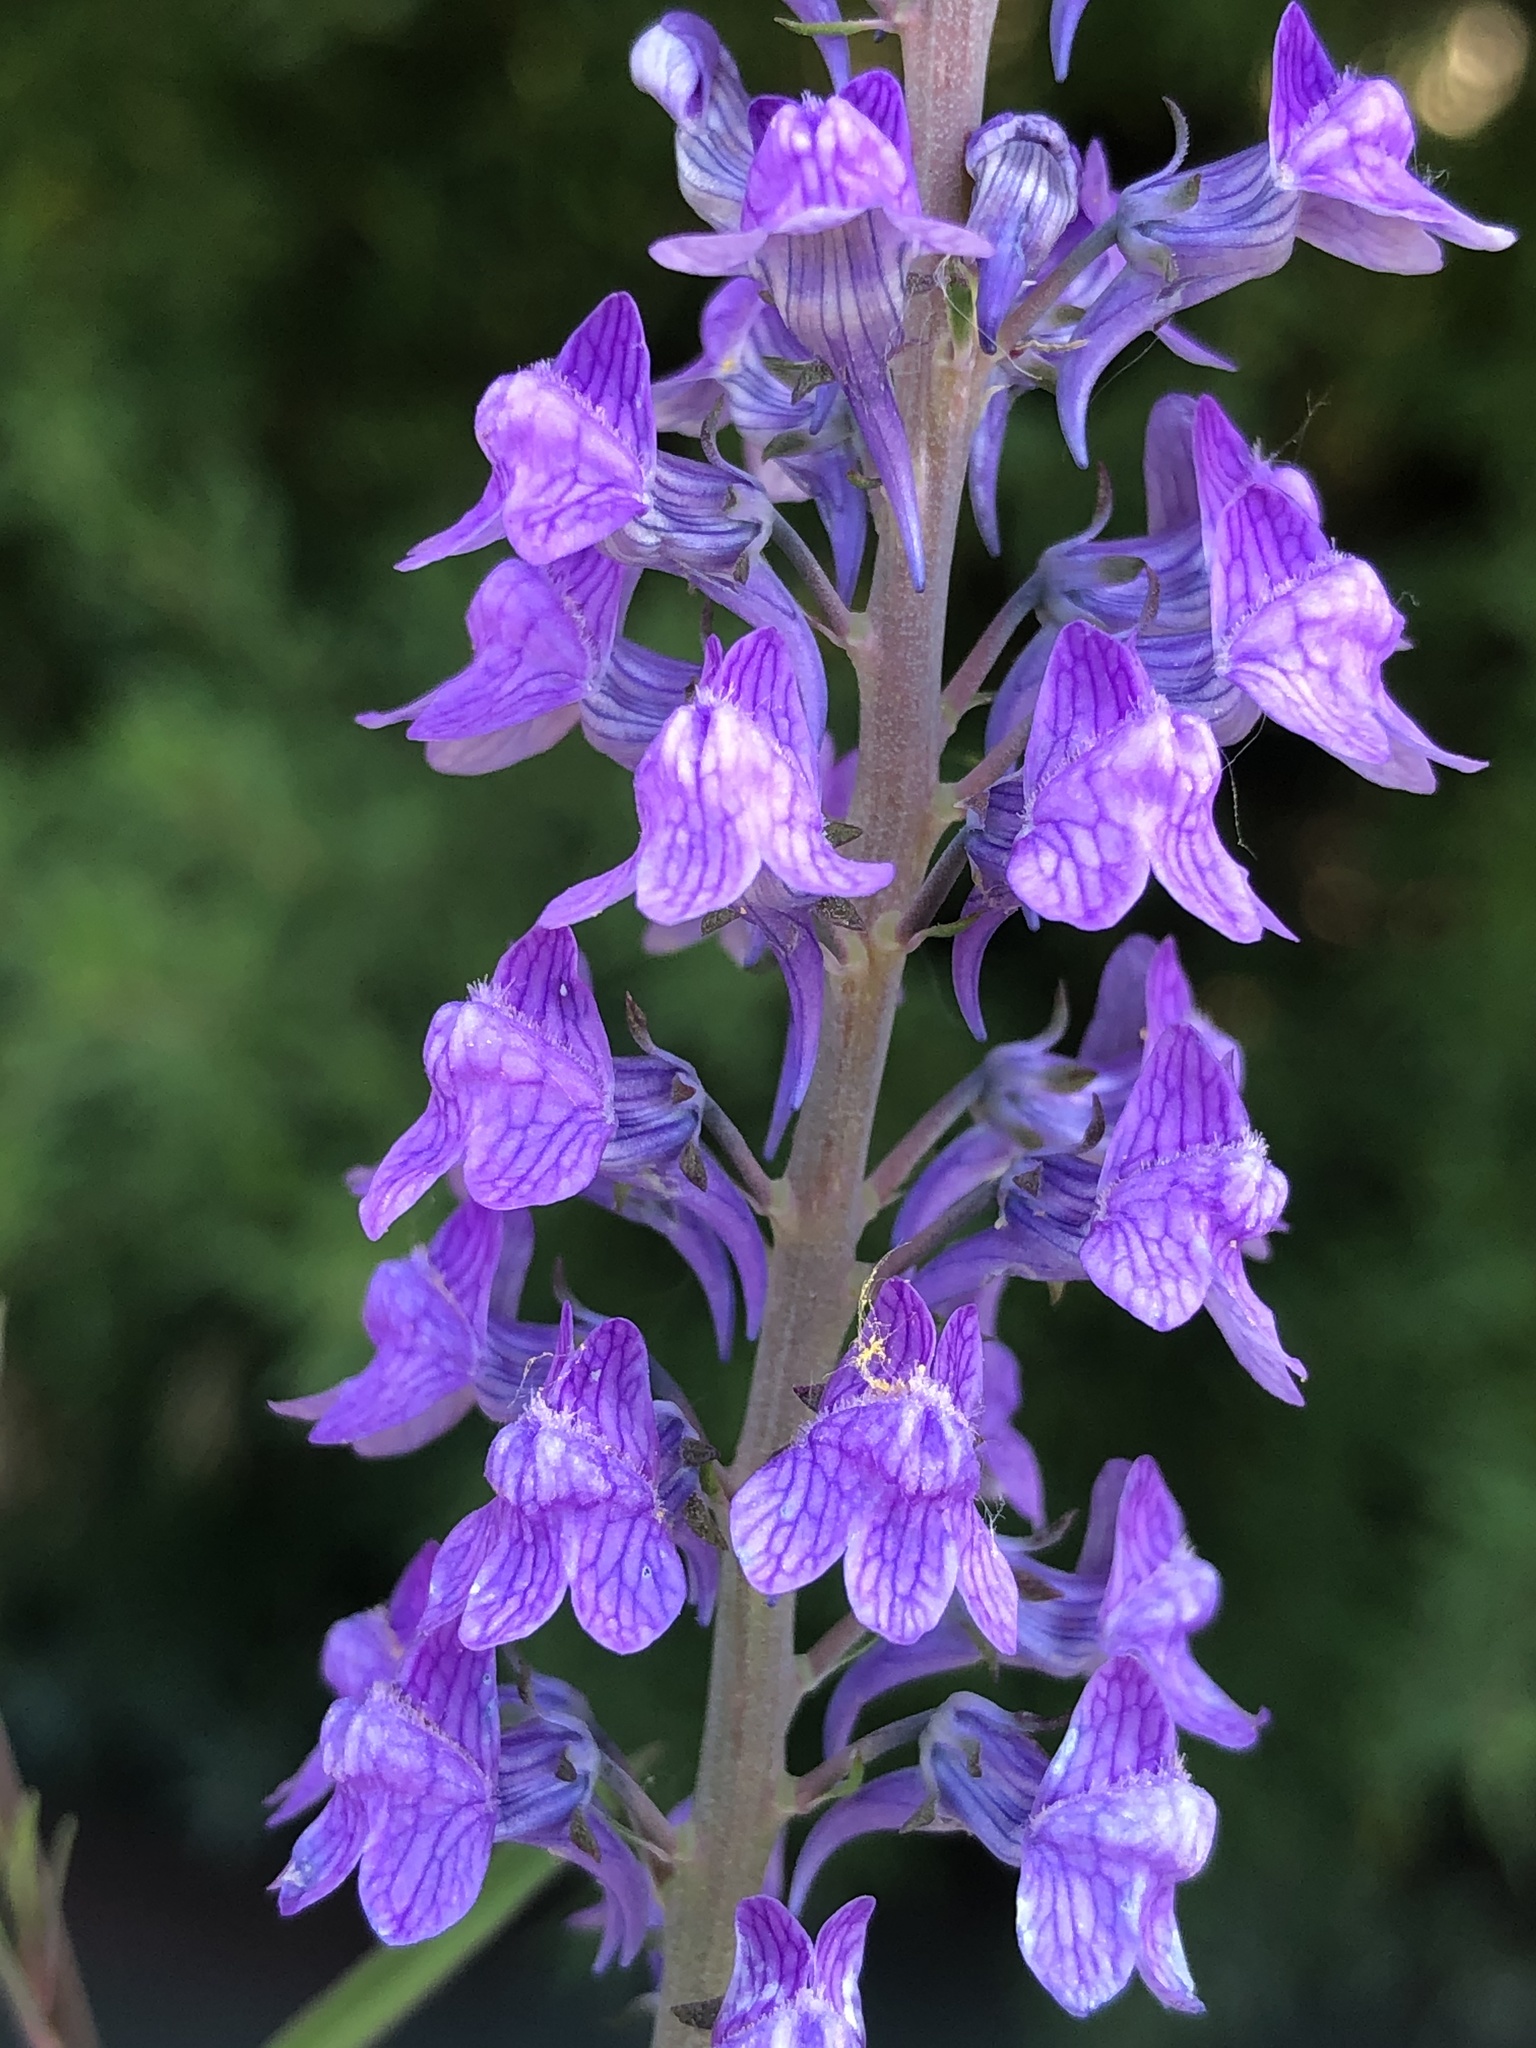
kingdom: Plantae
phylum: Tracheophyta
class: Magnoliopsida
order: Lamiales
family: Plantaginaceae
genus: Linaria
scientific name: Linaria purpurea
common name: Purple toadflax
